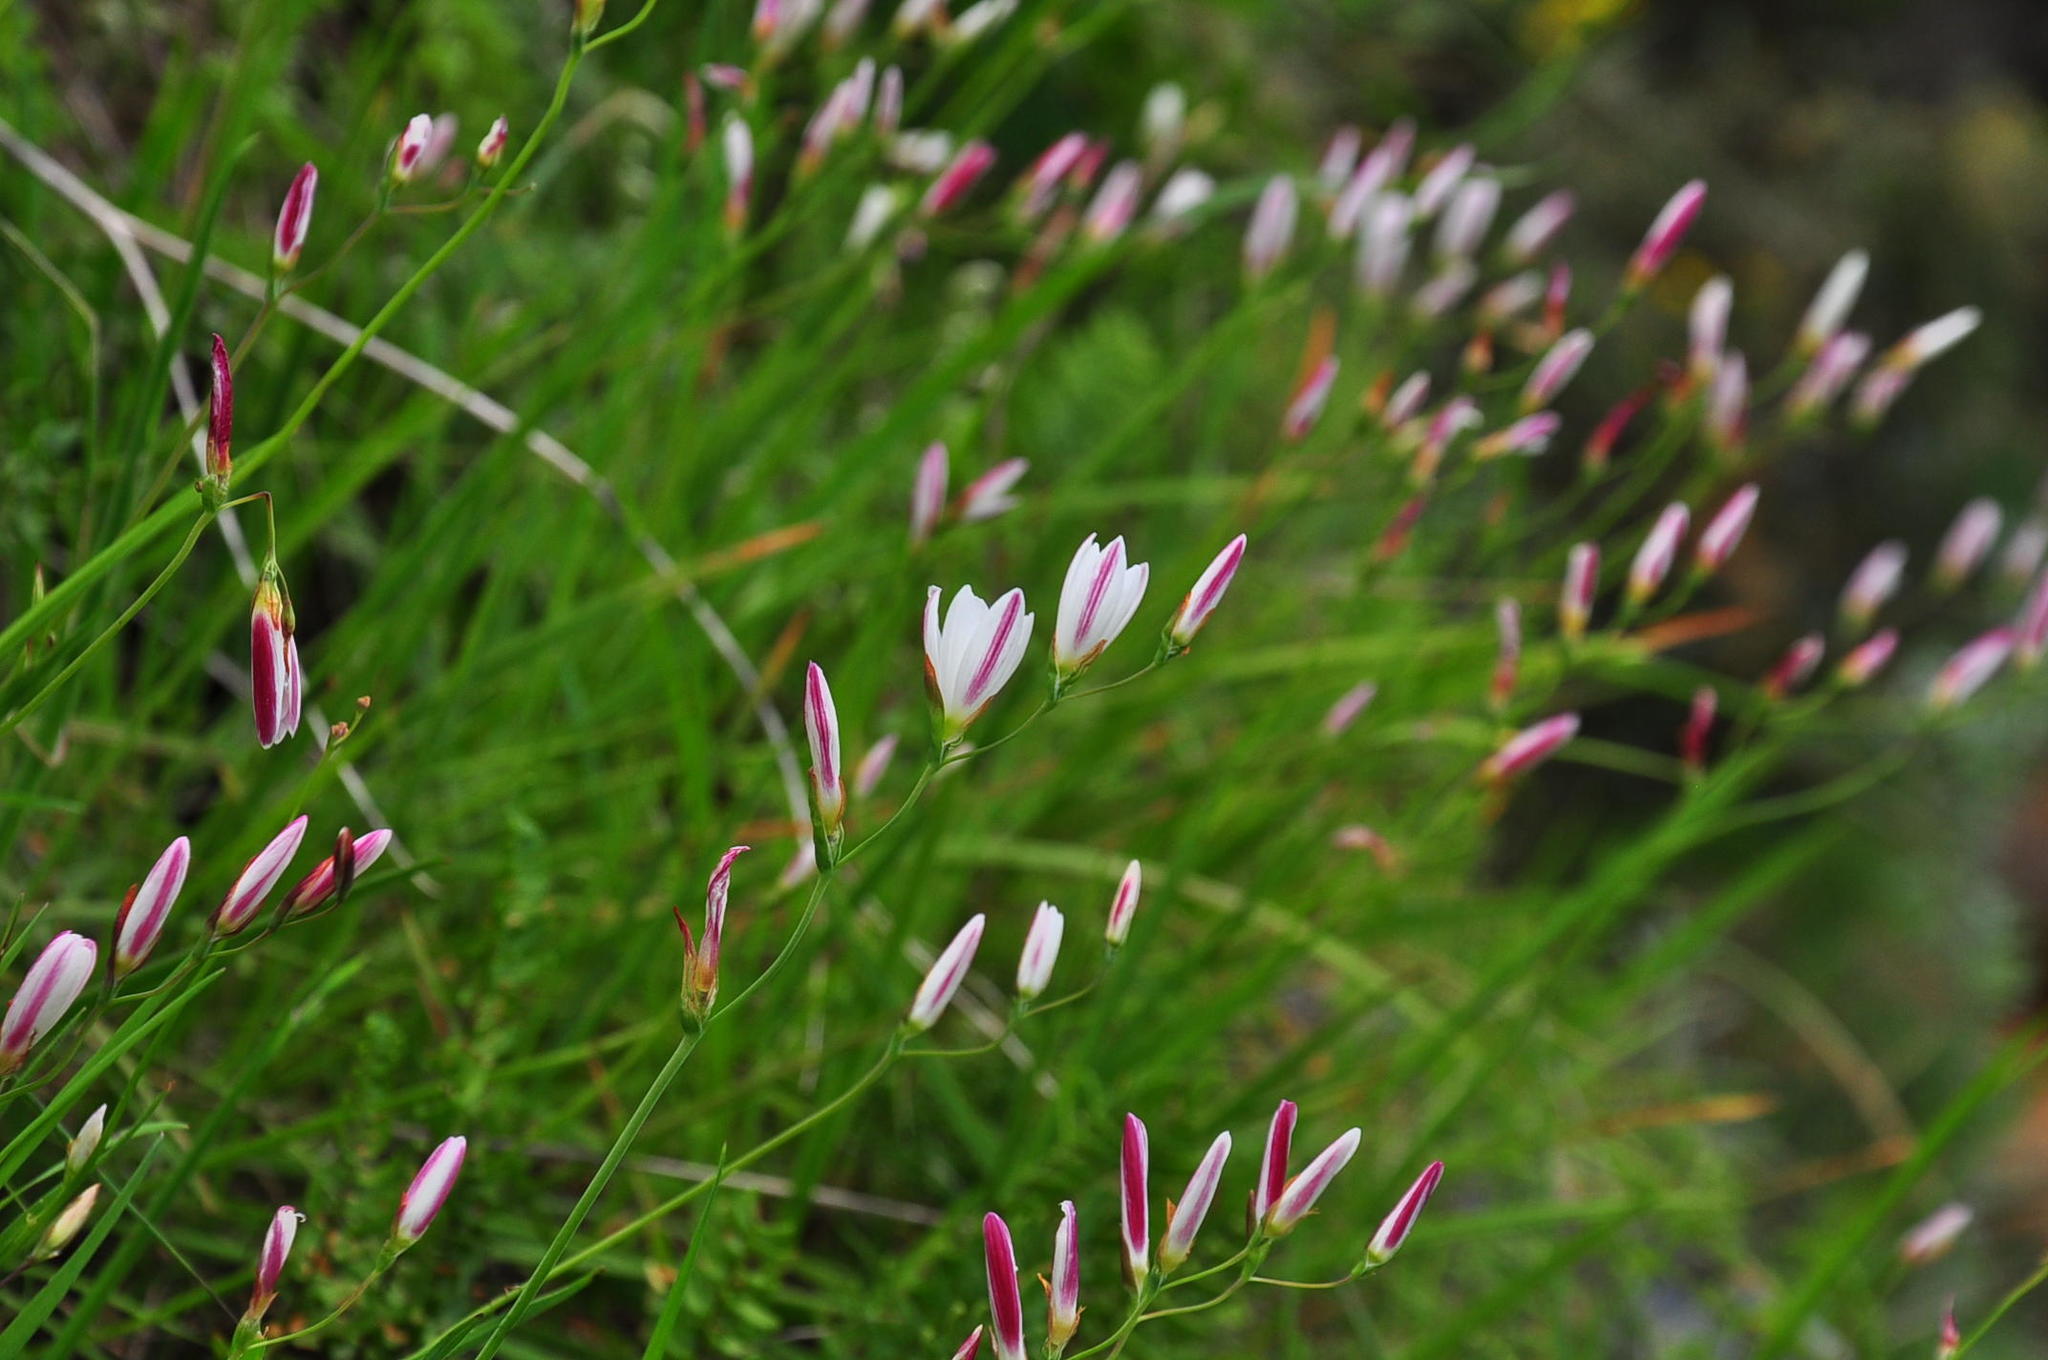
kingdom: Plantae
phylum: Tracheophyta
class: Liliopsida
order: Asparagales
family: Iridaceae
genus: Geissorhiza
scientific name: Geissorhiza juncea
